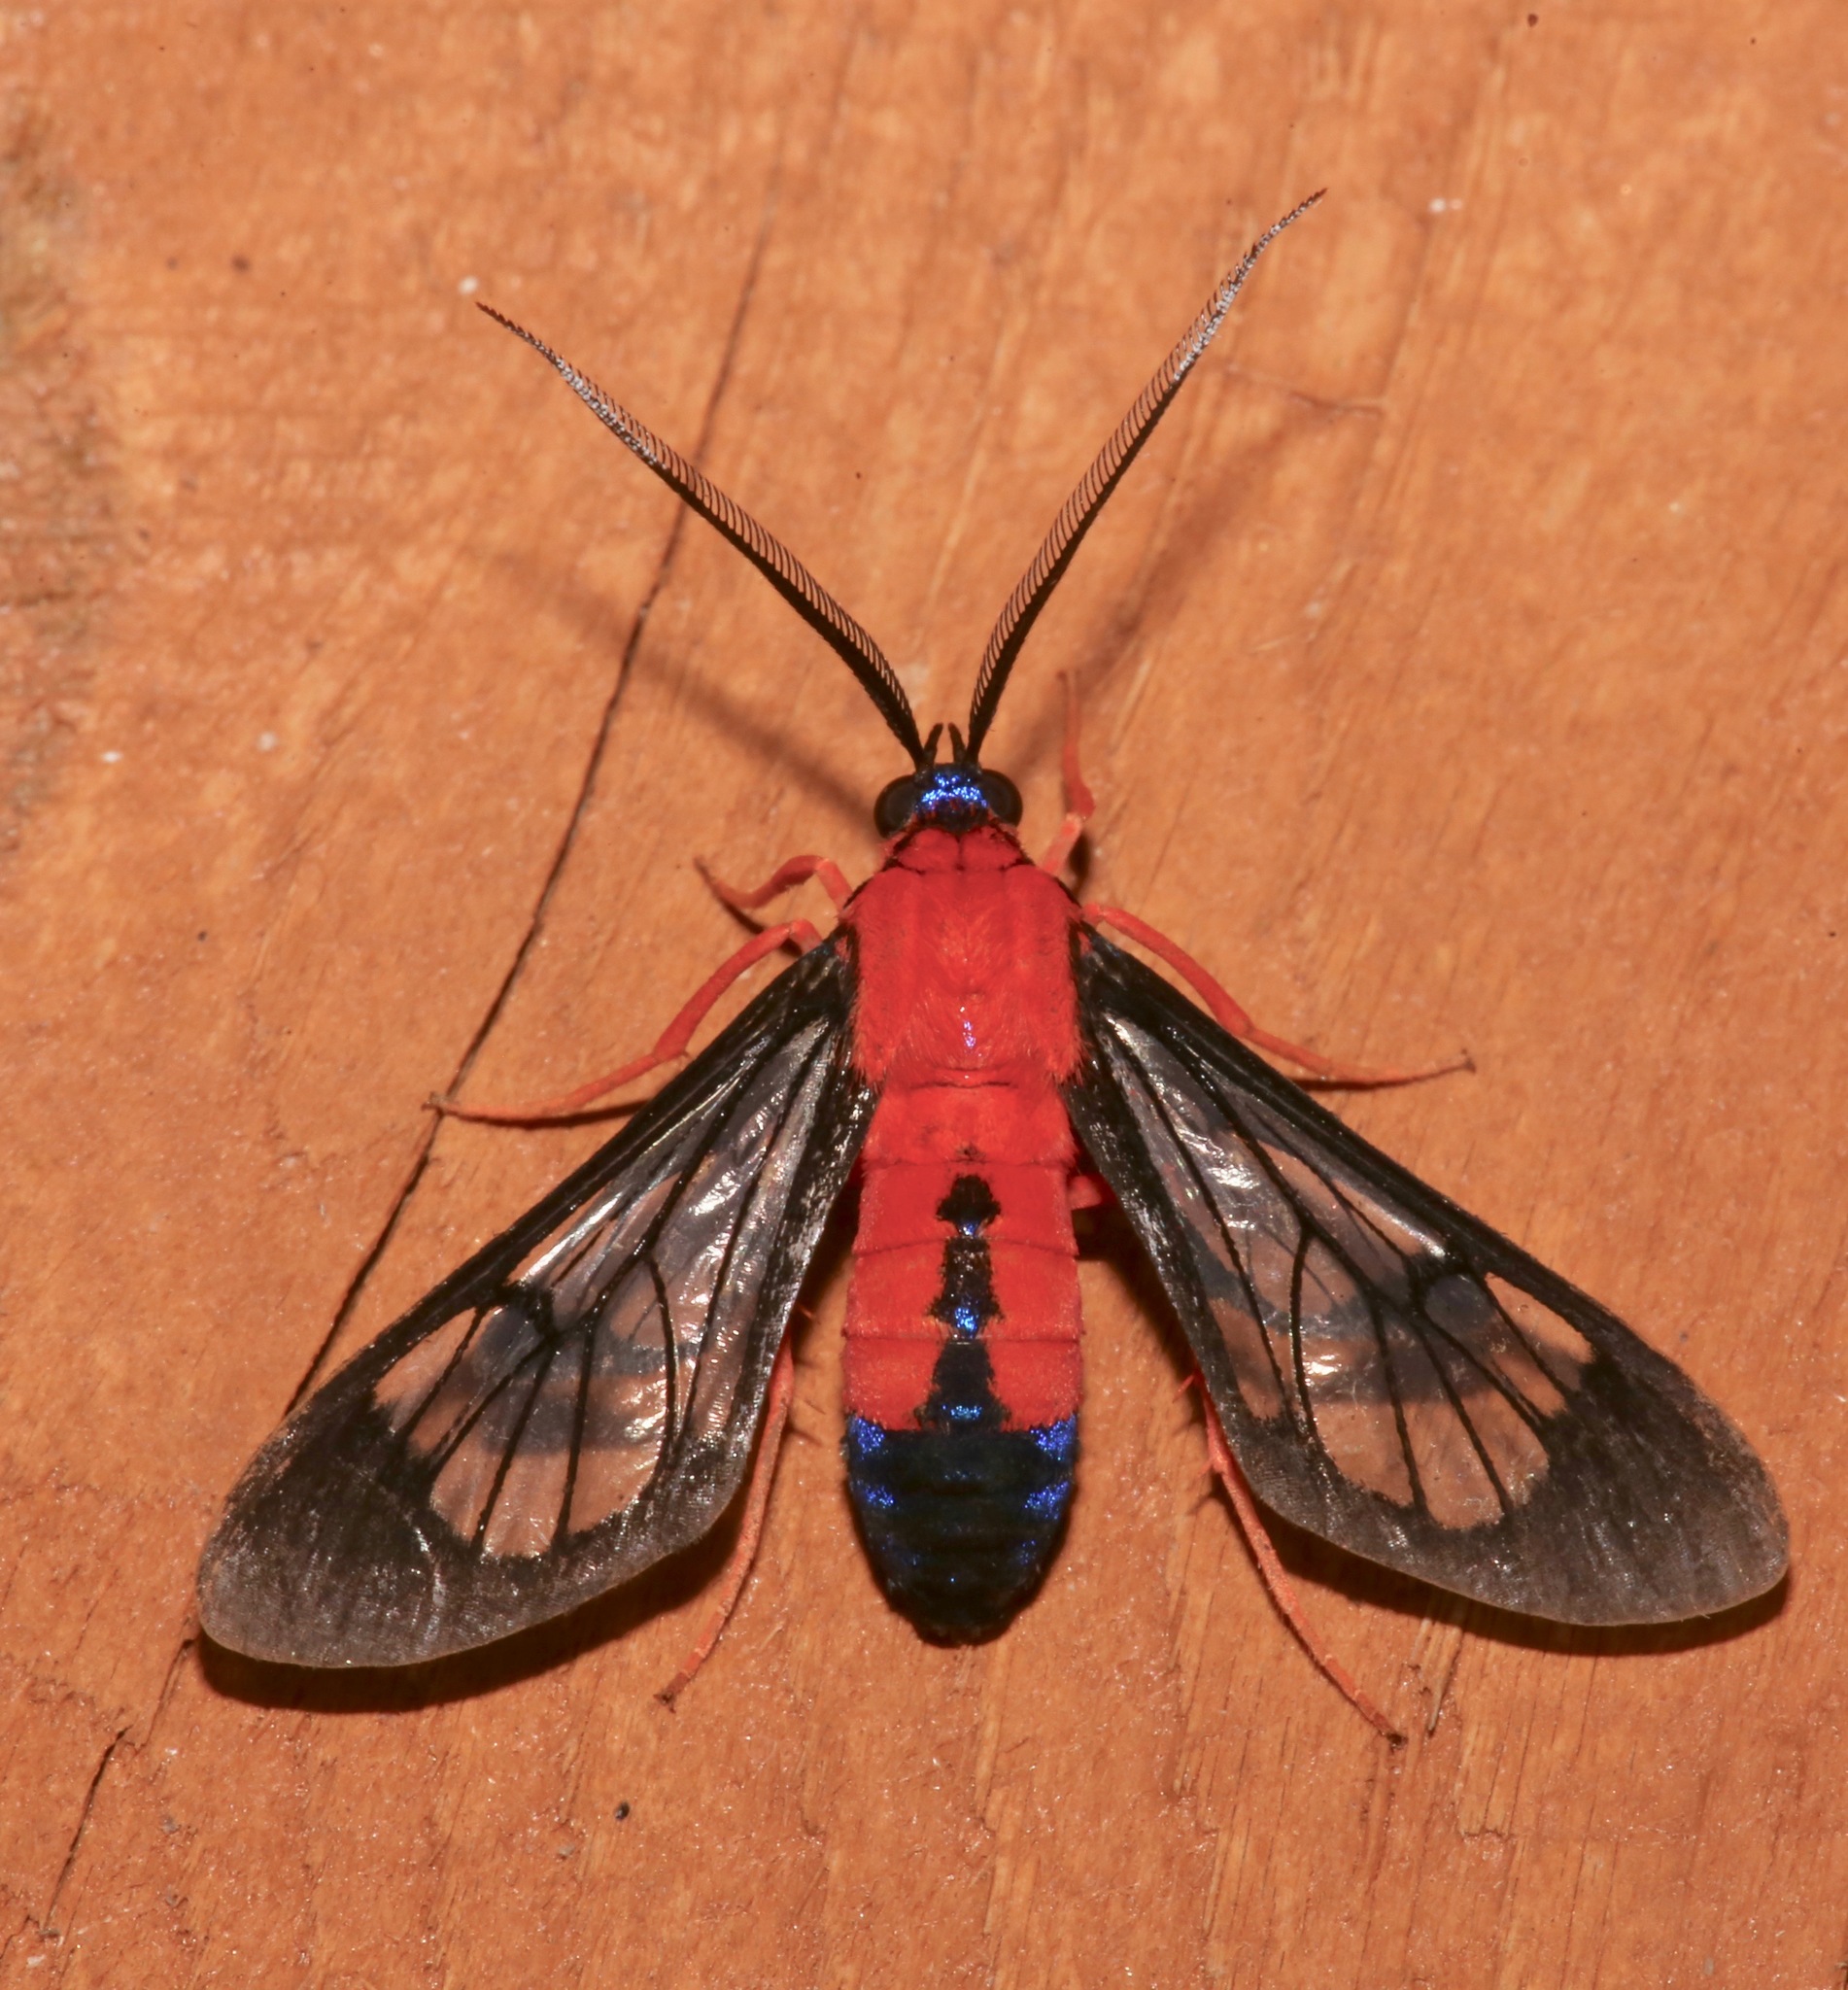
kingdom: Animalia
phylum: Arthropoda
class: Insecta
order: Lepidoptera
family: Erebidae
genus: Cosmosoma
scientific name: Cosmosoma myrodora
